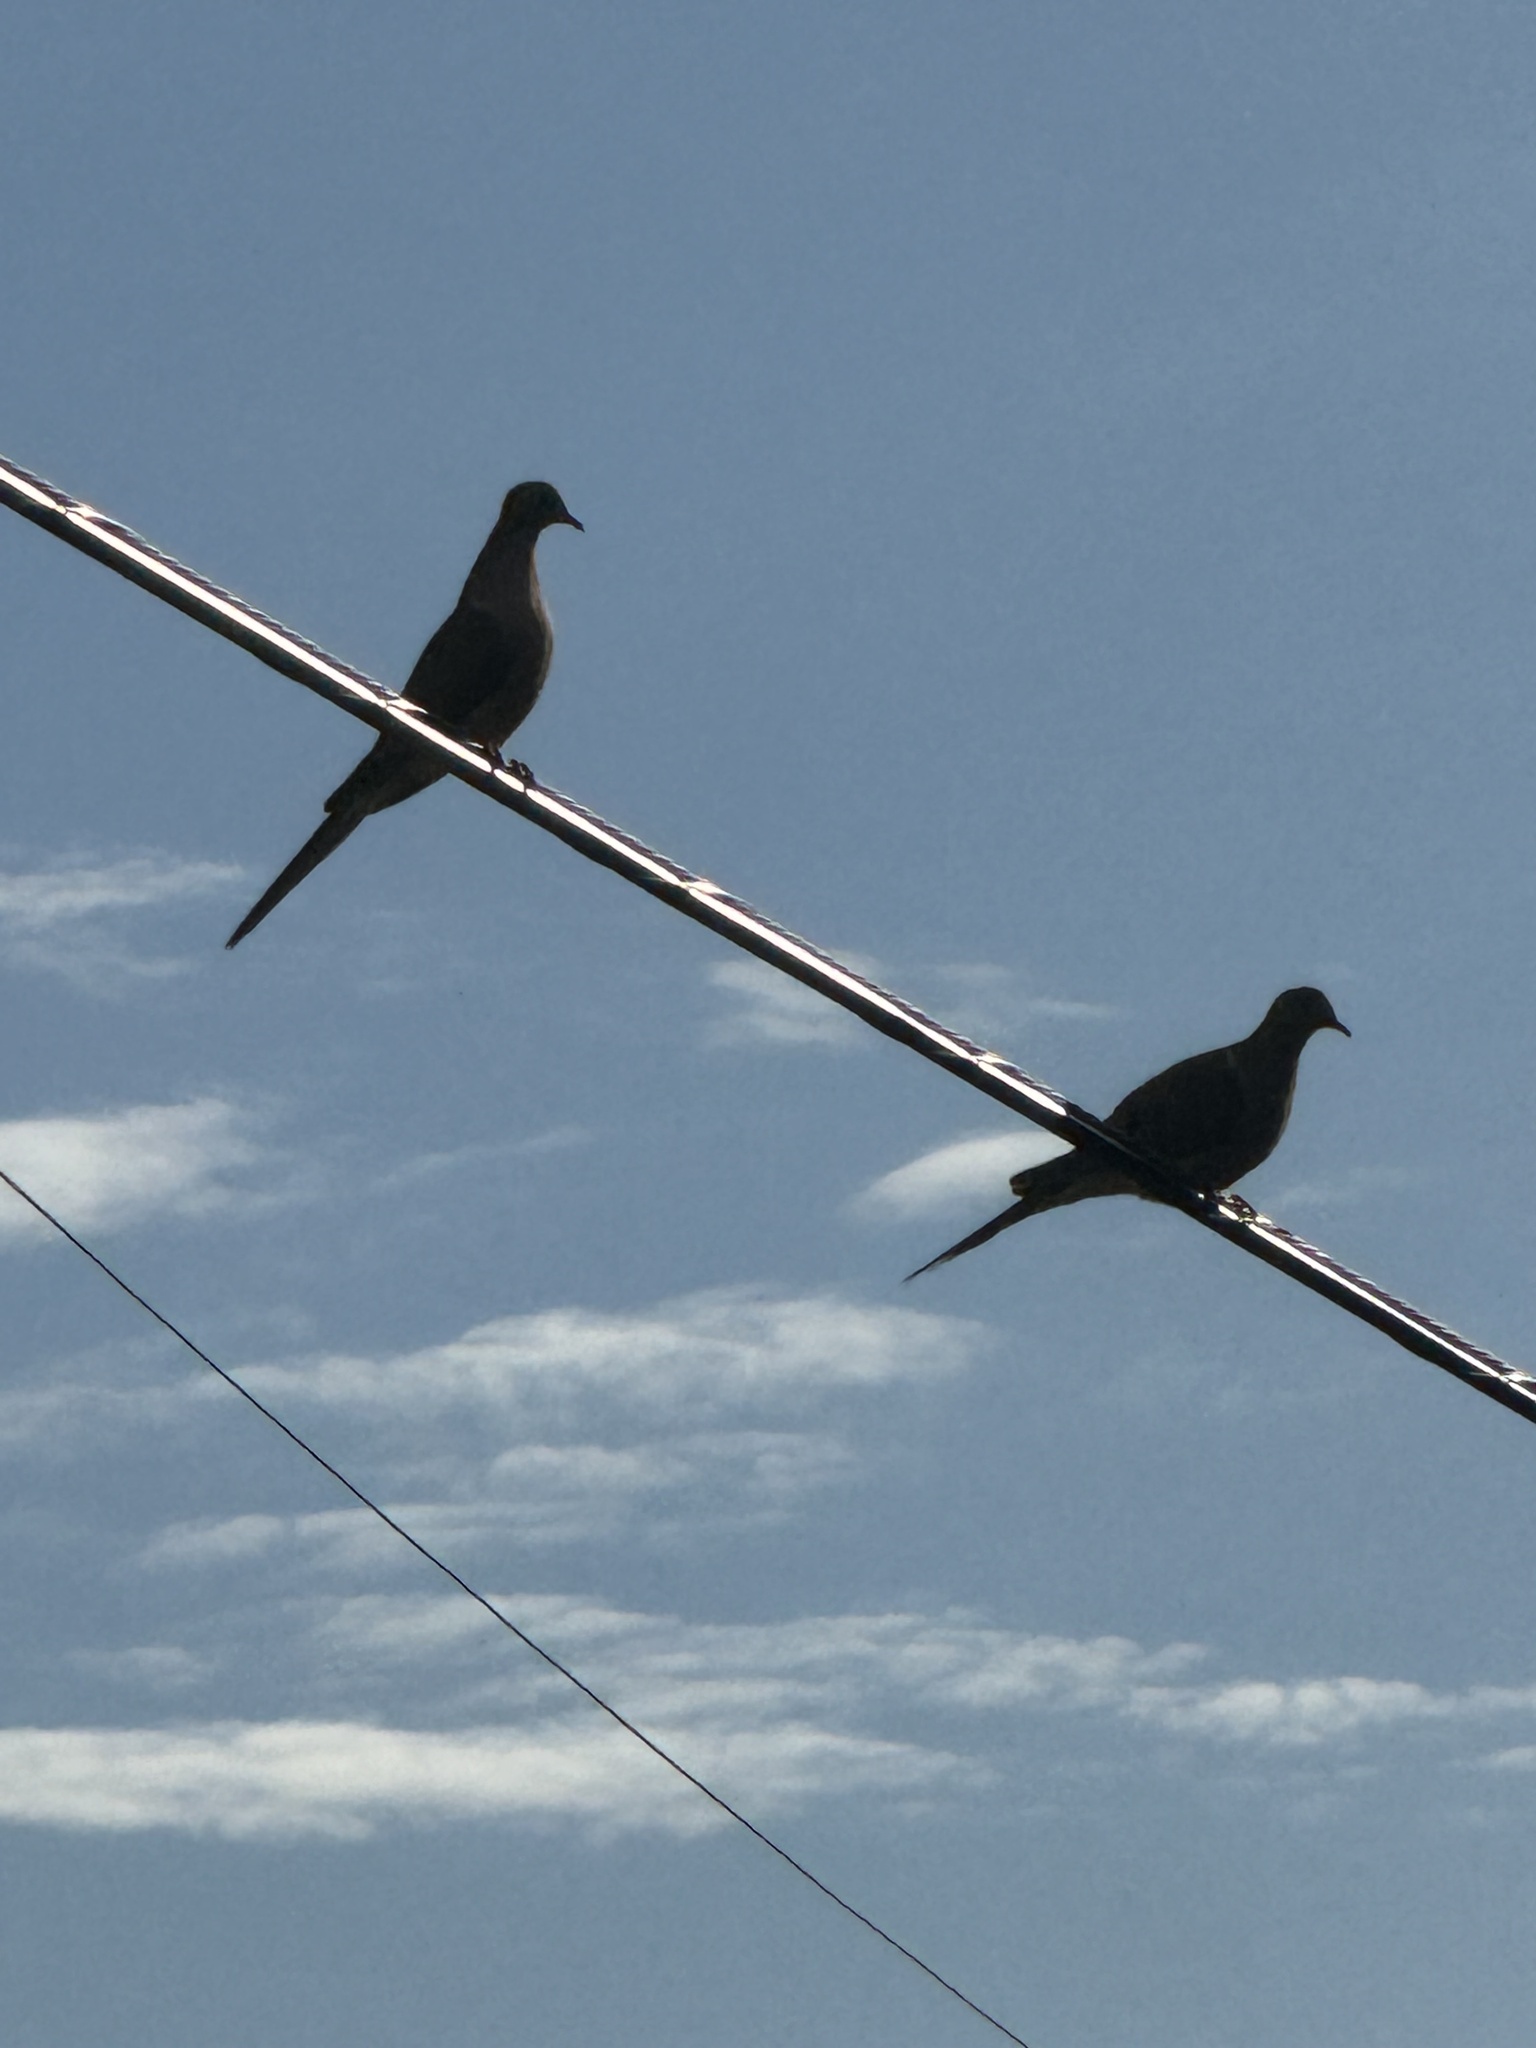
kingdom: Animalia
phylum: Chordata
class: Aves
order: Columbiformes
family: Columbidae
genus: Zenaida
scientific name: Zenaida macroura
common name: Mourning dove
